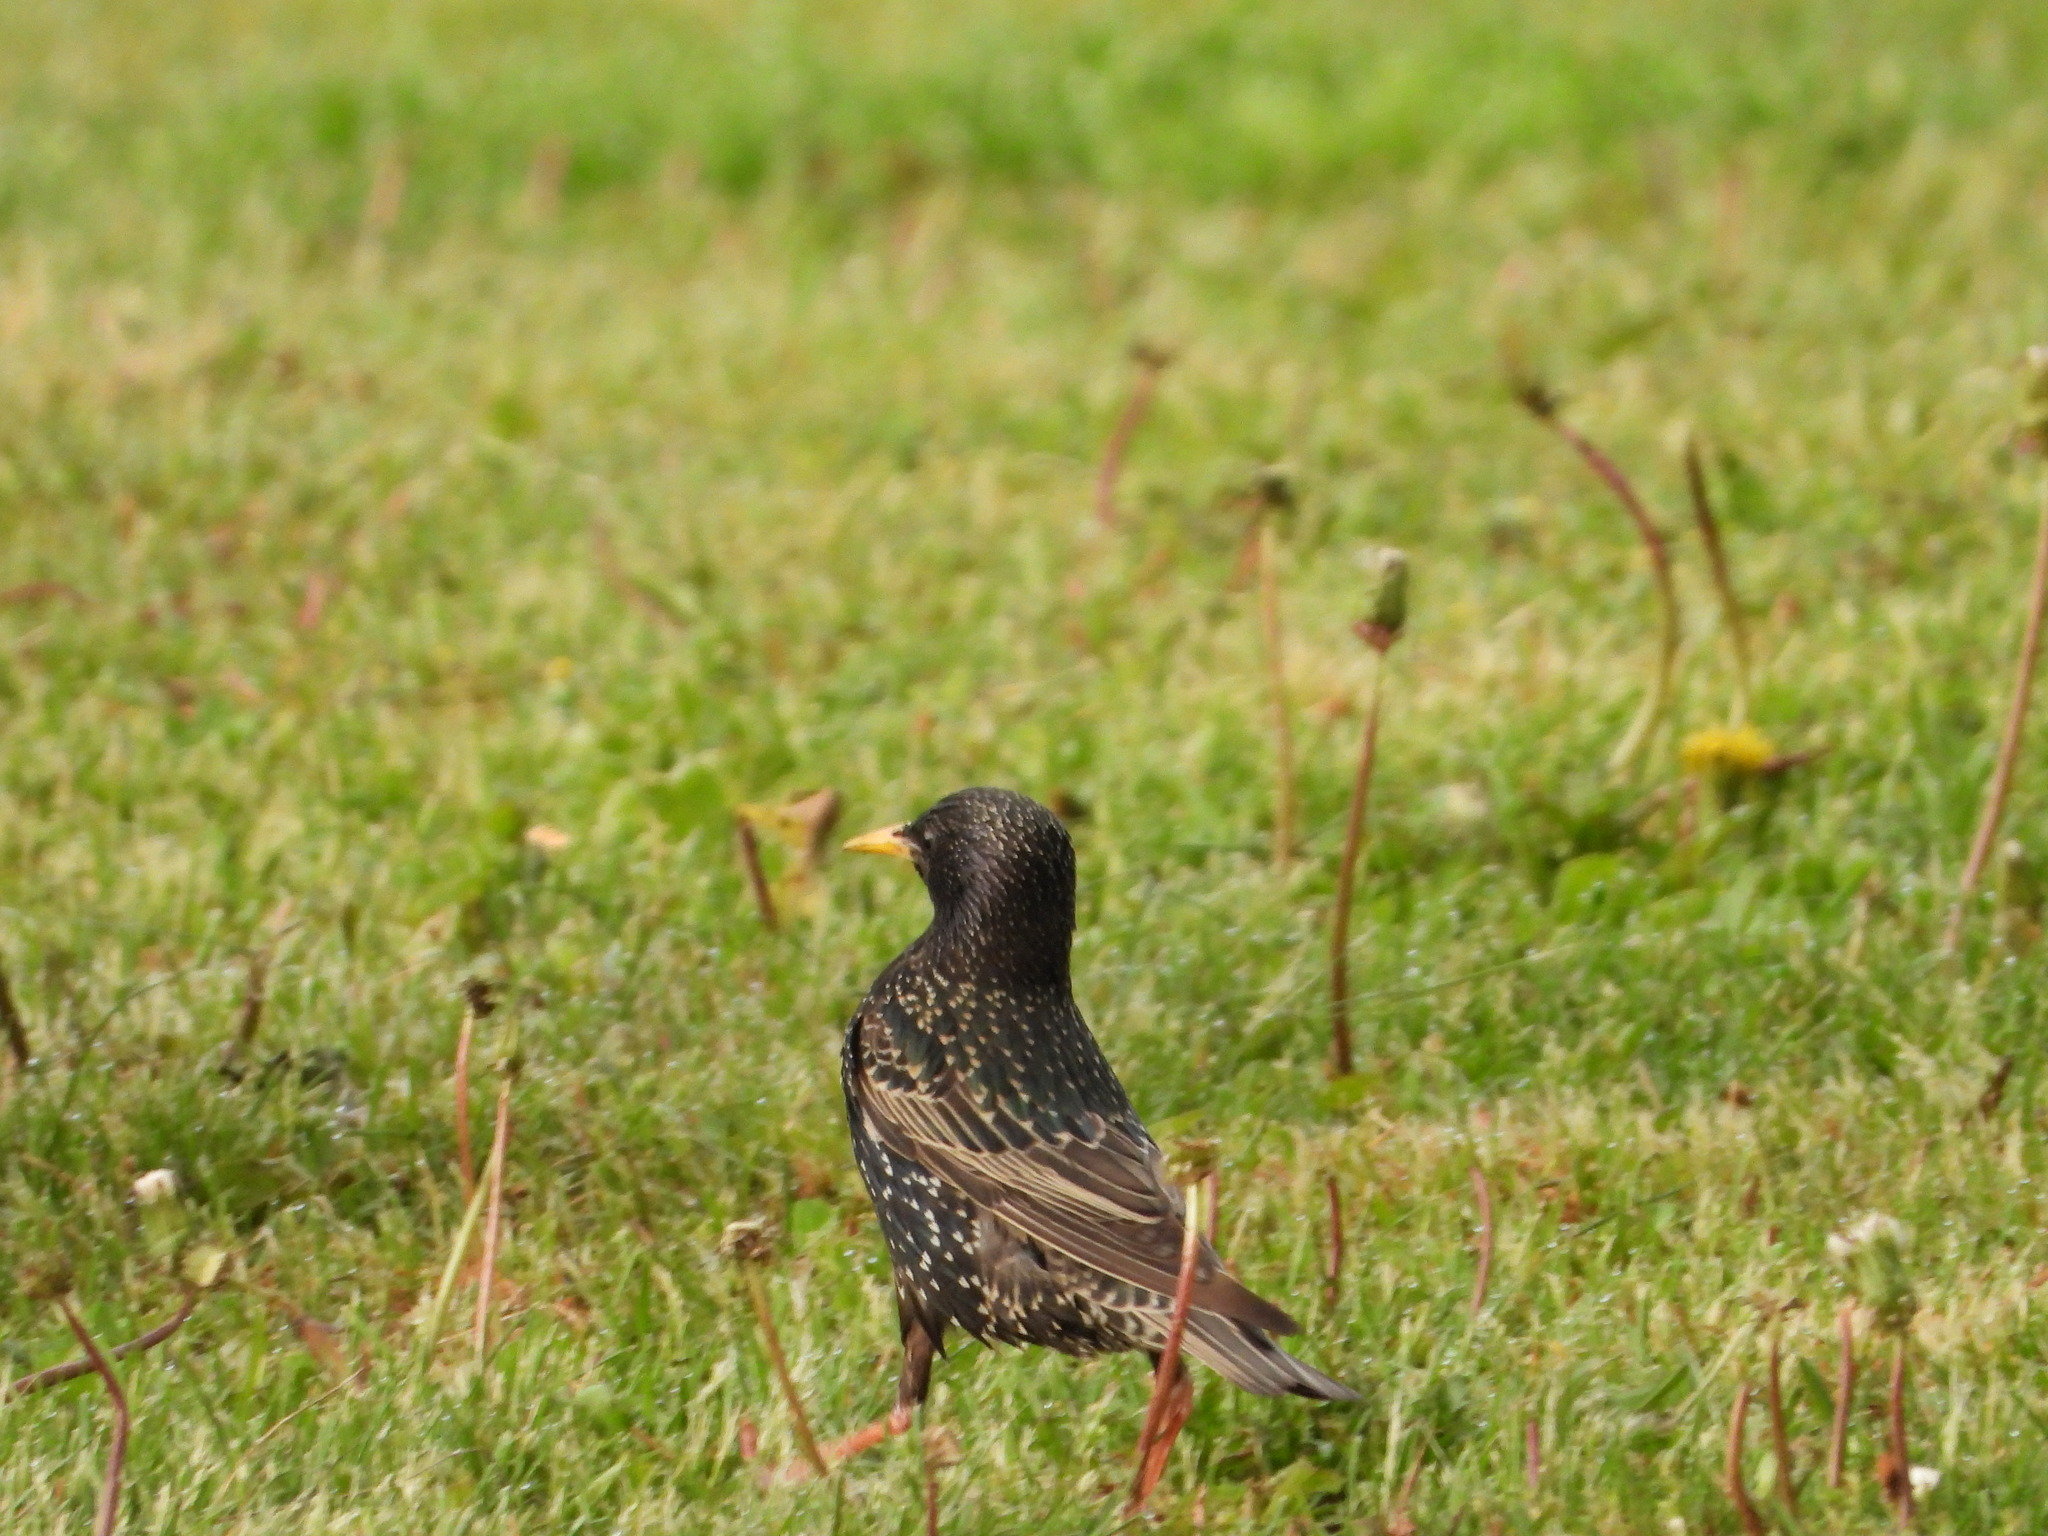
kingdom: Animalia
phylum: Chordata
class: Aves
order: Passeriformes
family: Sturnidae
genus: Sturnus
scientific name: Sturnus vulgaris
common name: Common starling
